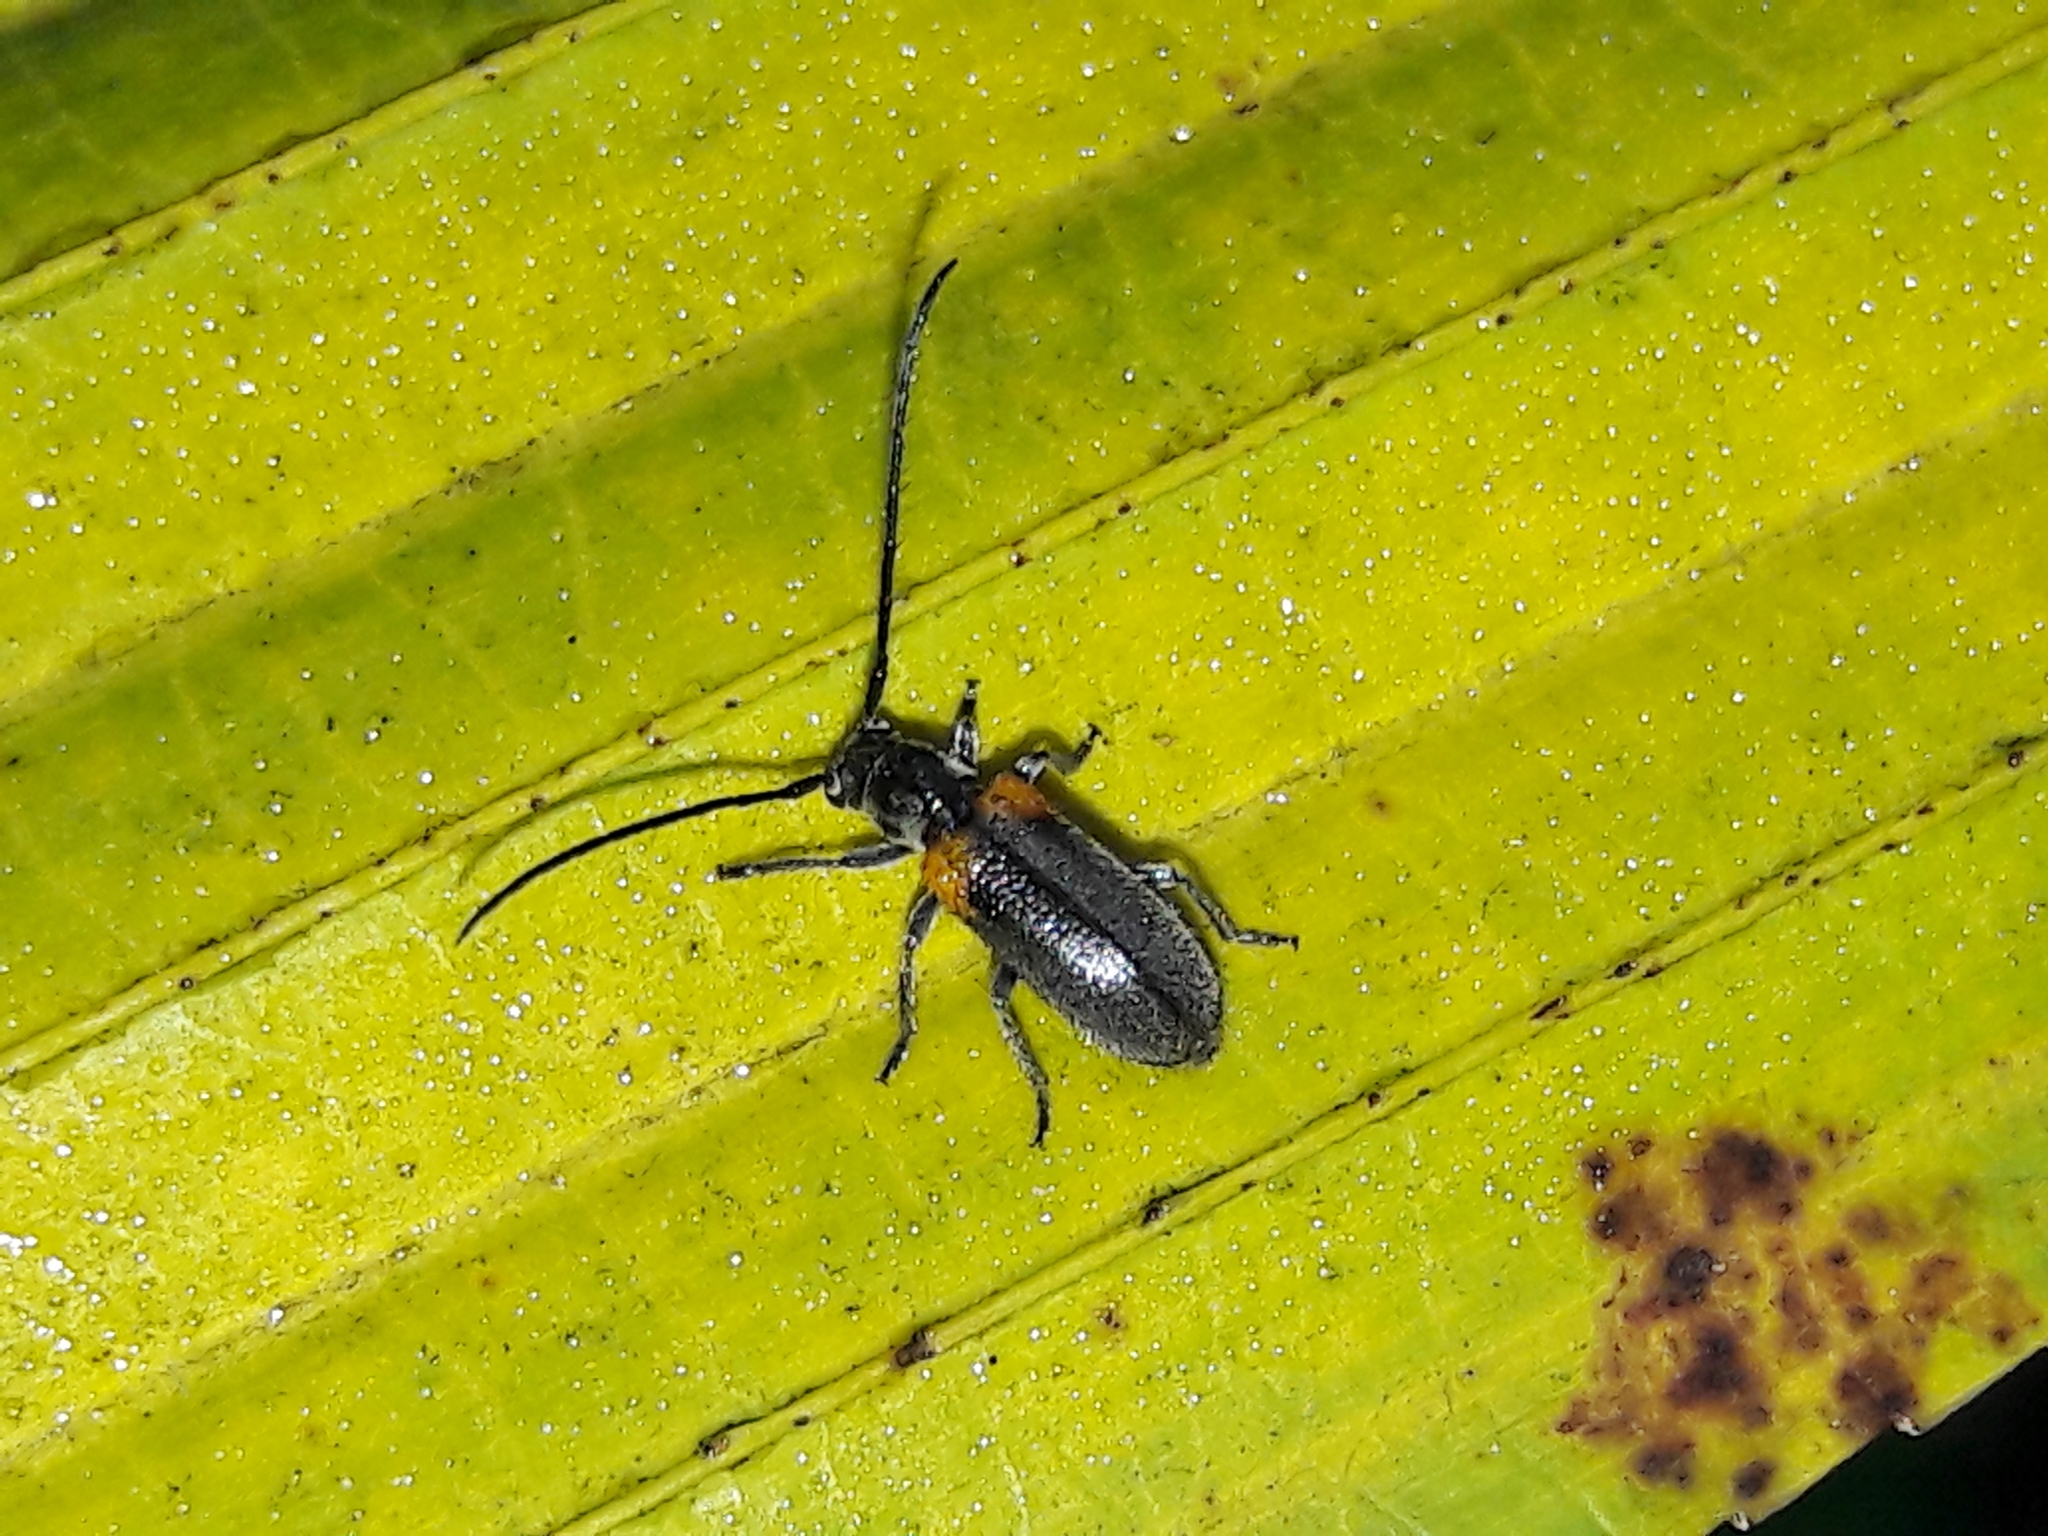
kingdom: Animalia
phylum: Arthropoda
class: Insecta
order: Coleoptera
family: Cerambycidae
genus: Callia
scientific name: Callia axillaris
